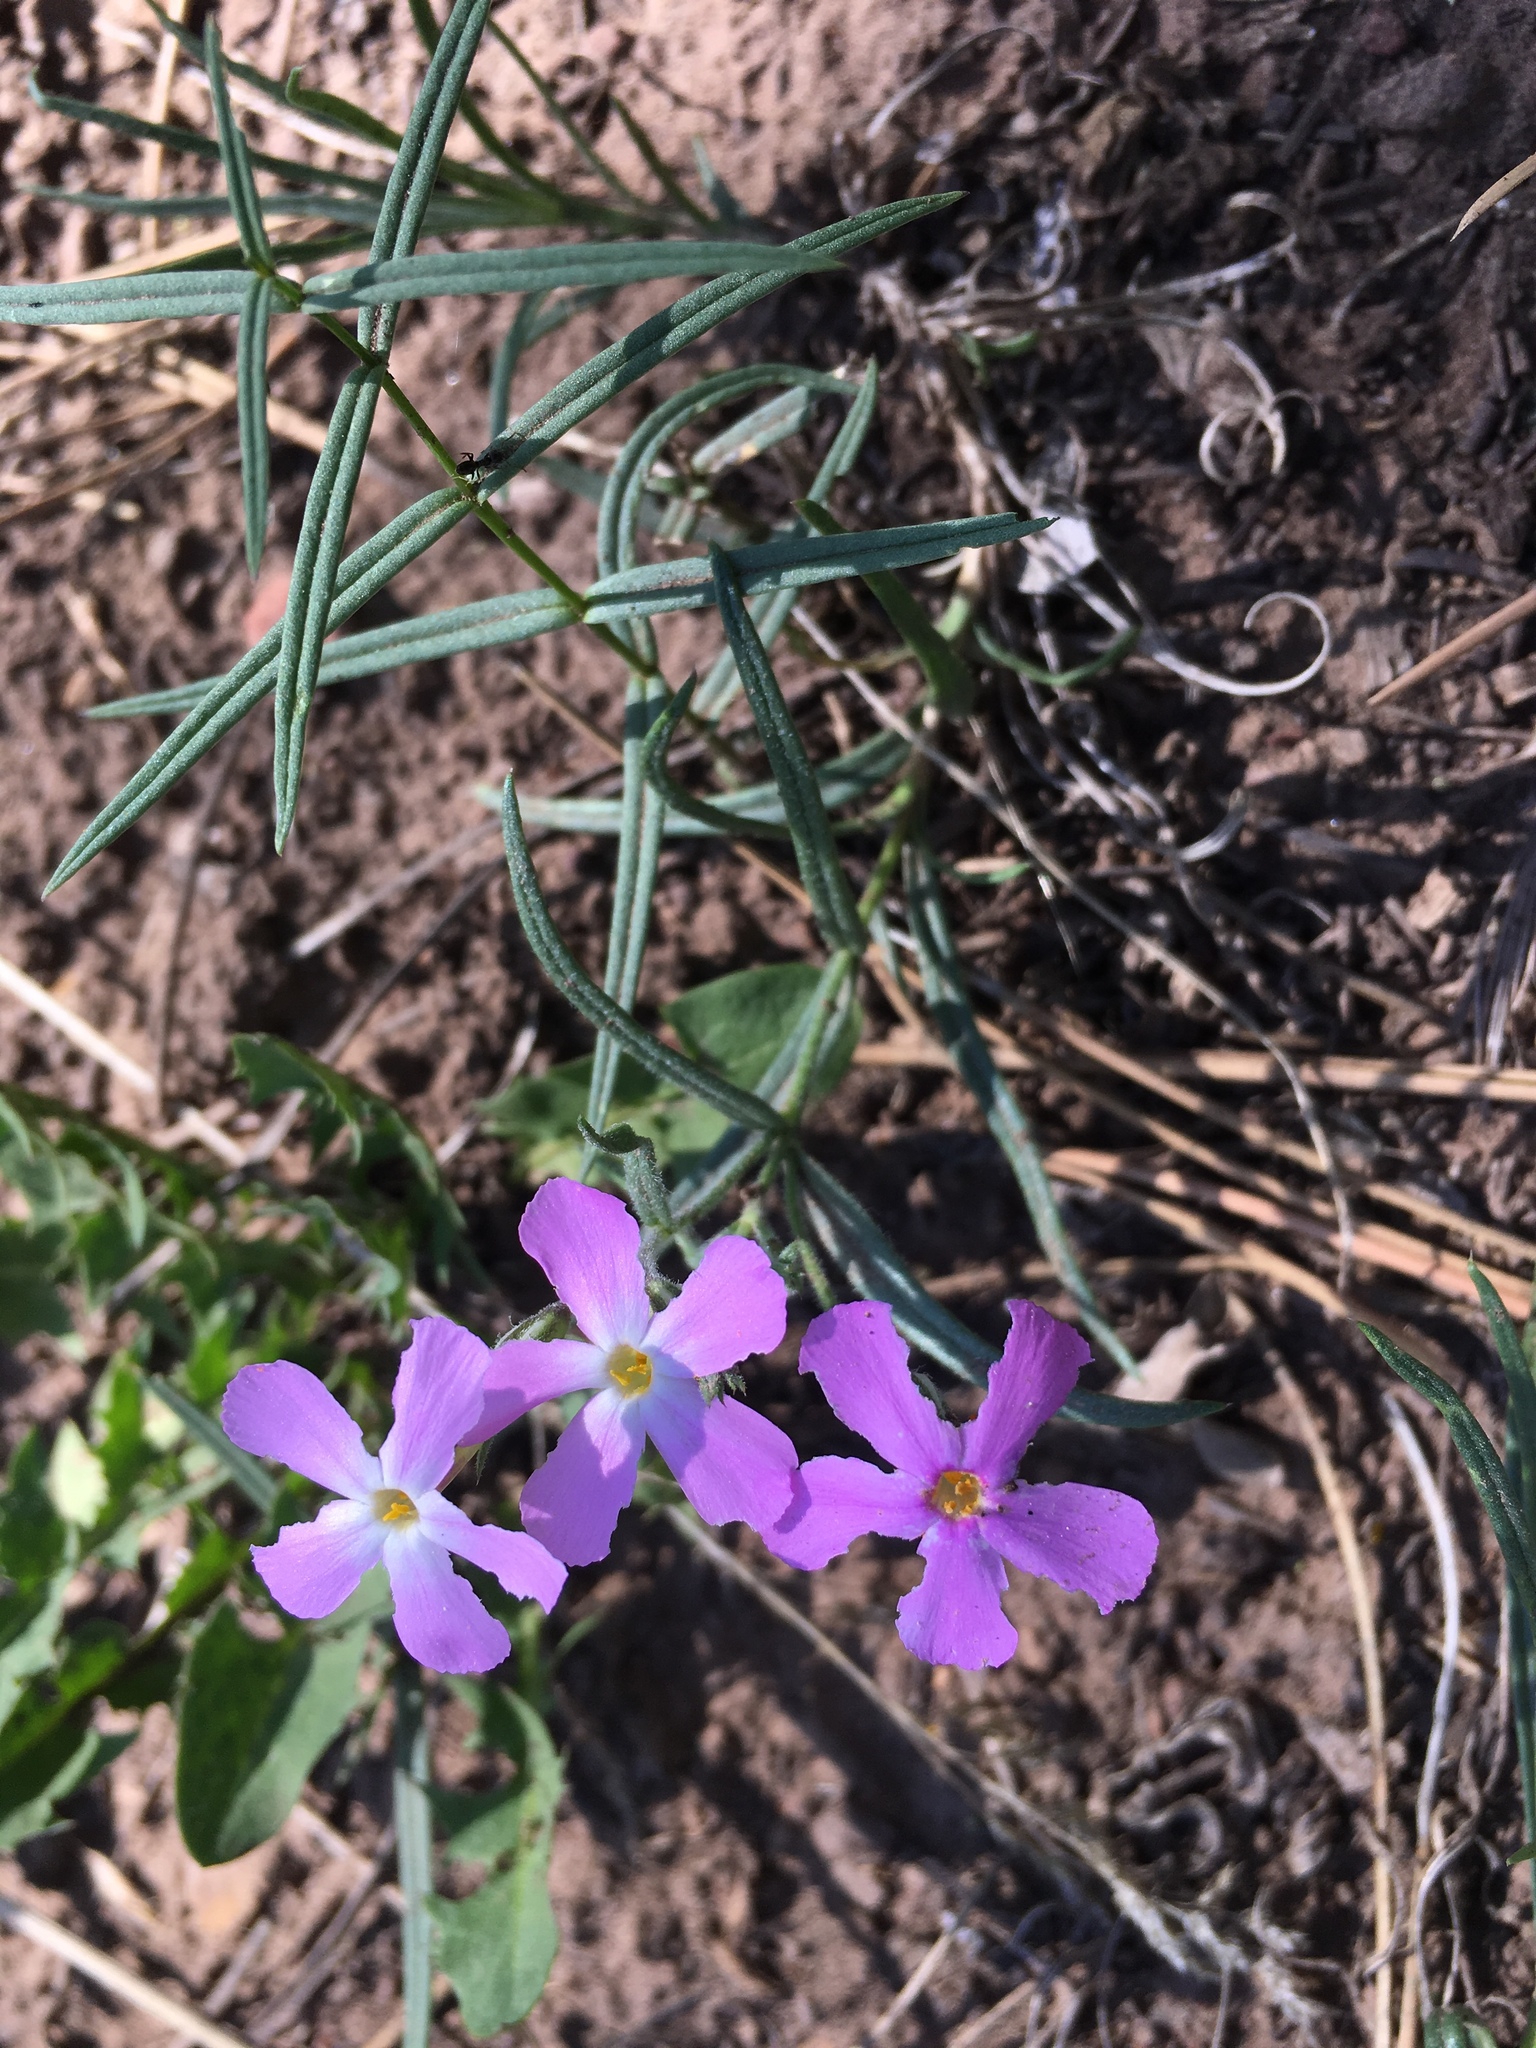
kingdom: Plantae
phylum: Tracheophyta
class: Magnoliopsida
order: Ericales
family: Polemoniaceae
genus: Phlox
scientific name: Phlox longifolia
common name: Longleaf phlox
